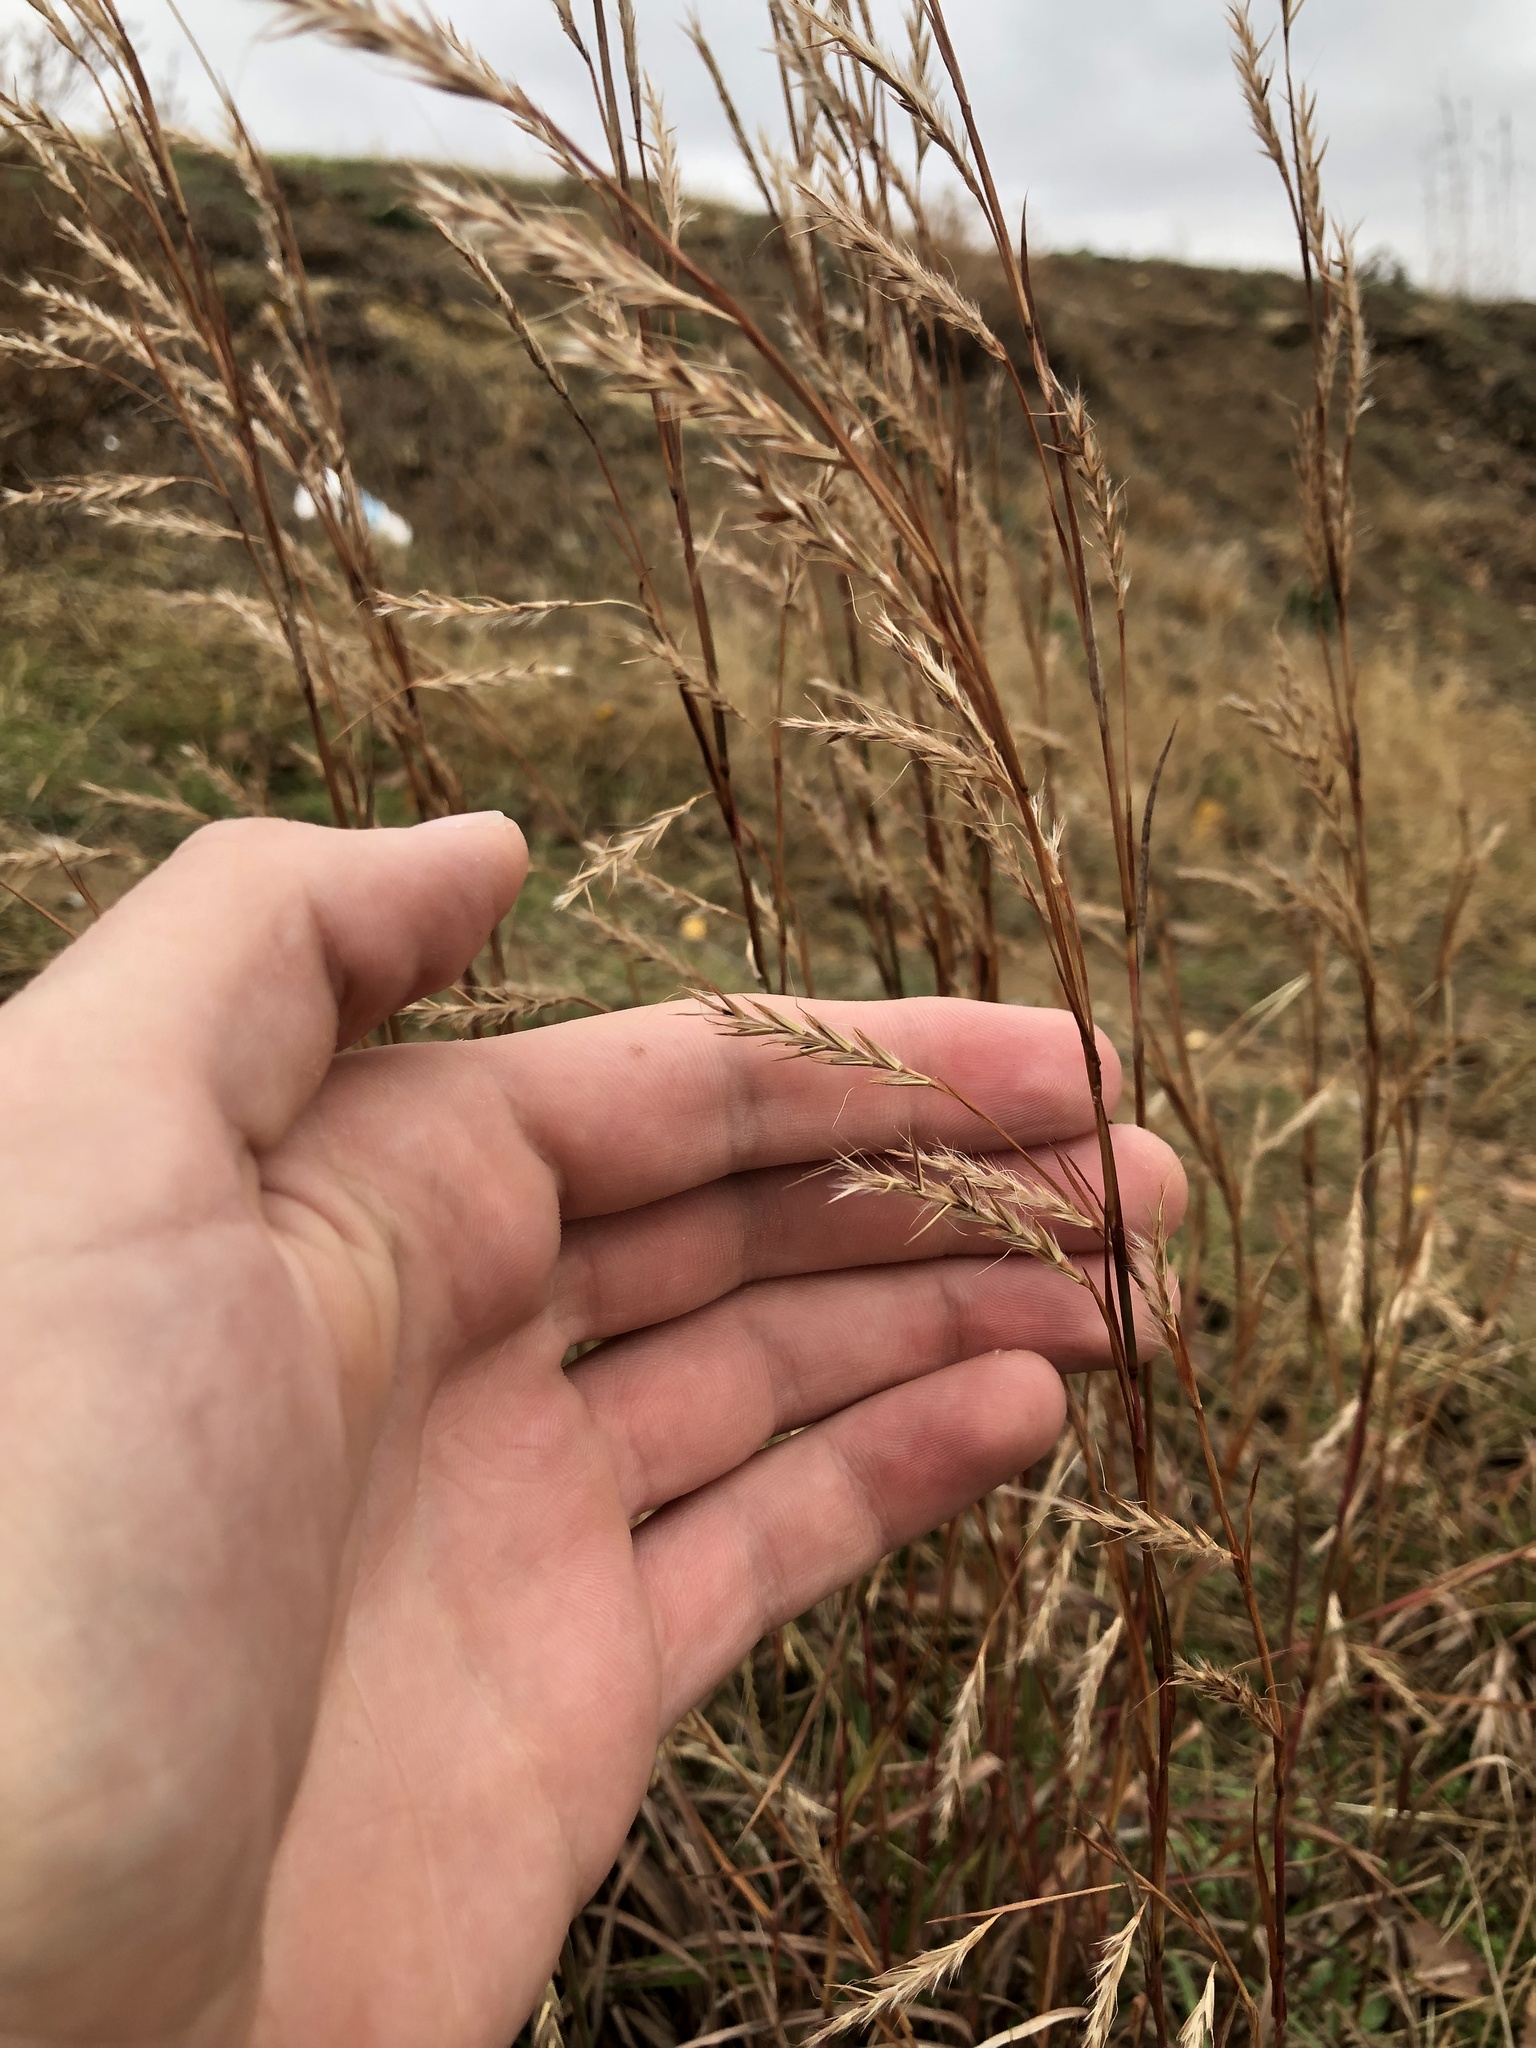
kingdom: Plantae
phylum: Tracheophyta
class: Liliopsida
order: Poales
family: Poaceae
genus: Schizachyrium
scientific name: Schizachyrium scoparium
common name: Little bluestem
